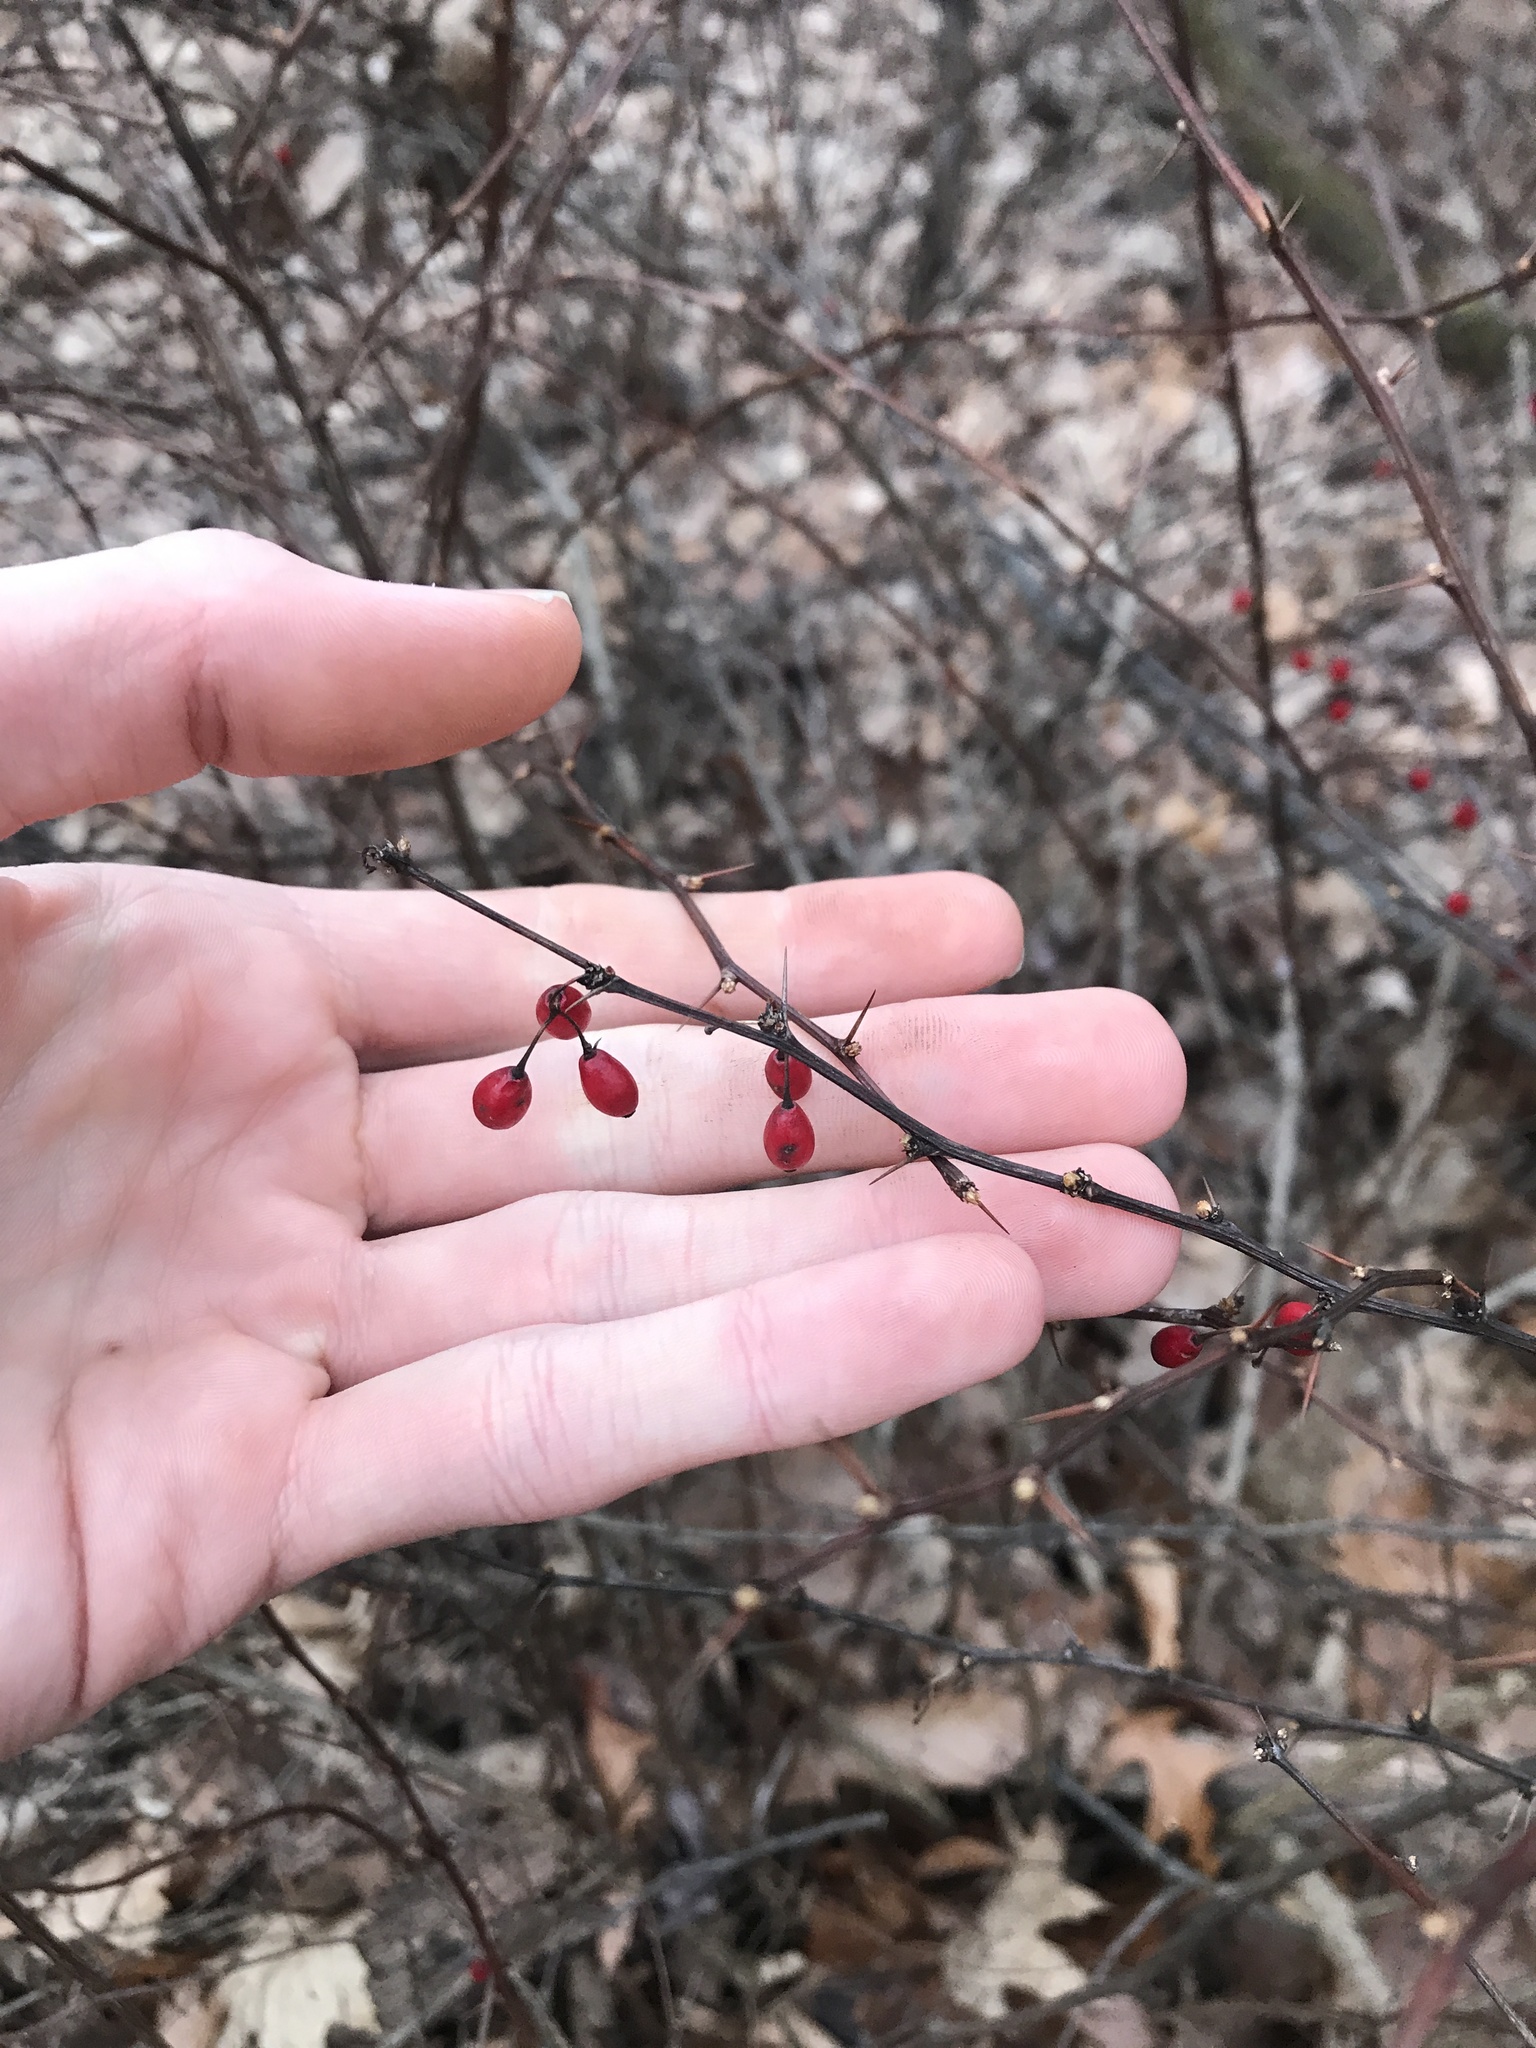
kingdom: Plantae
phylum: Tracheophyta
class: Magnoliopsida
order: Ranunculales
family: Berberidaceae
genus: Berberis
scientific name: Berberis thunbergii
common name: Japanese barberry
